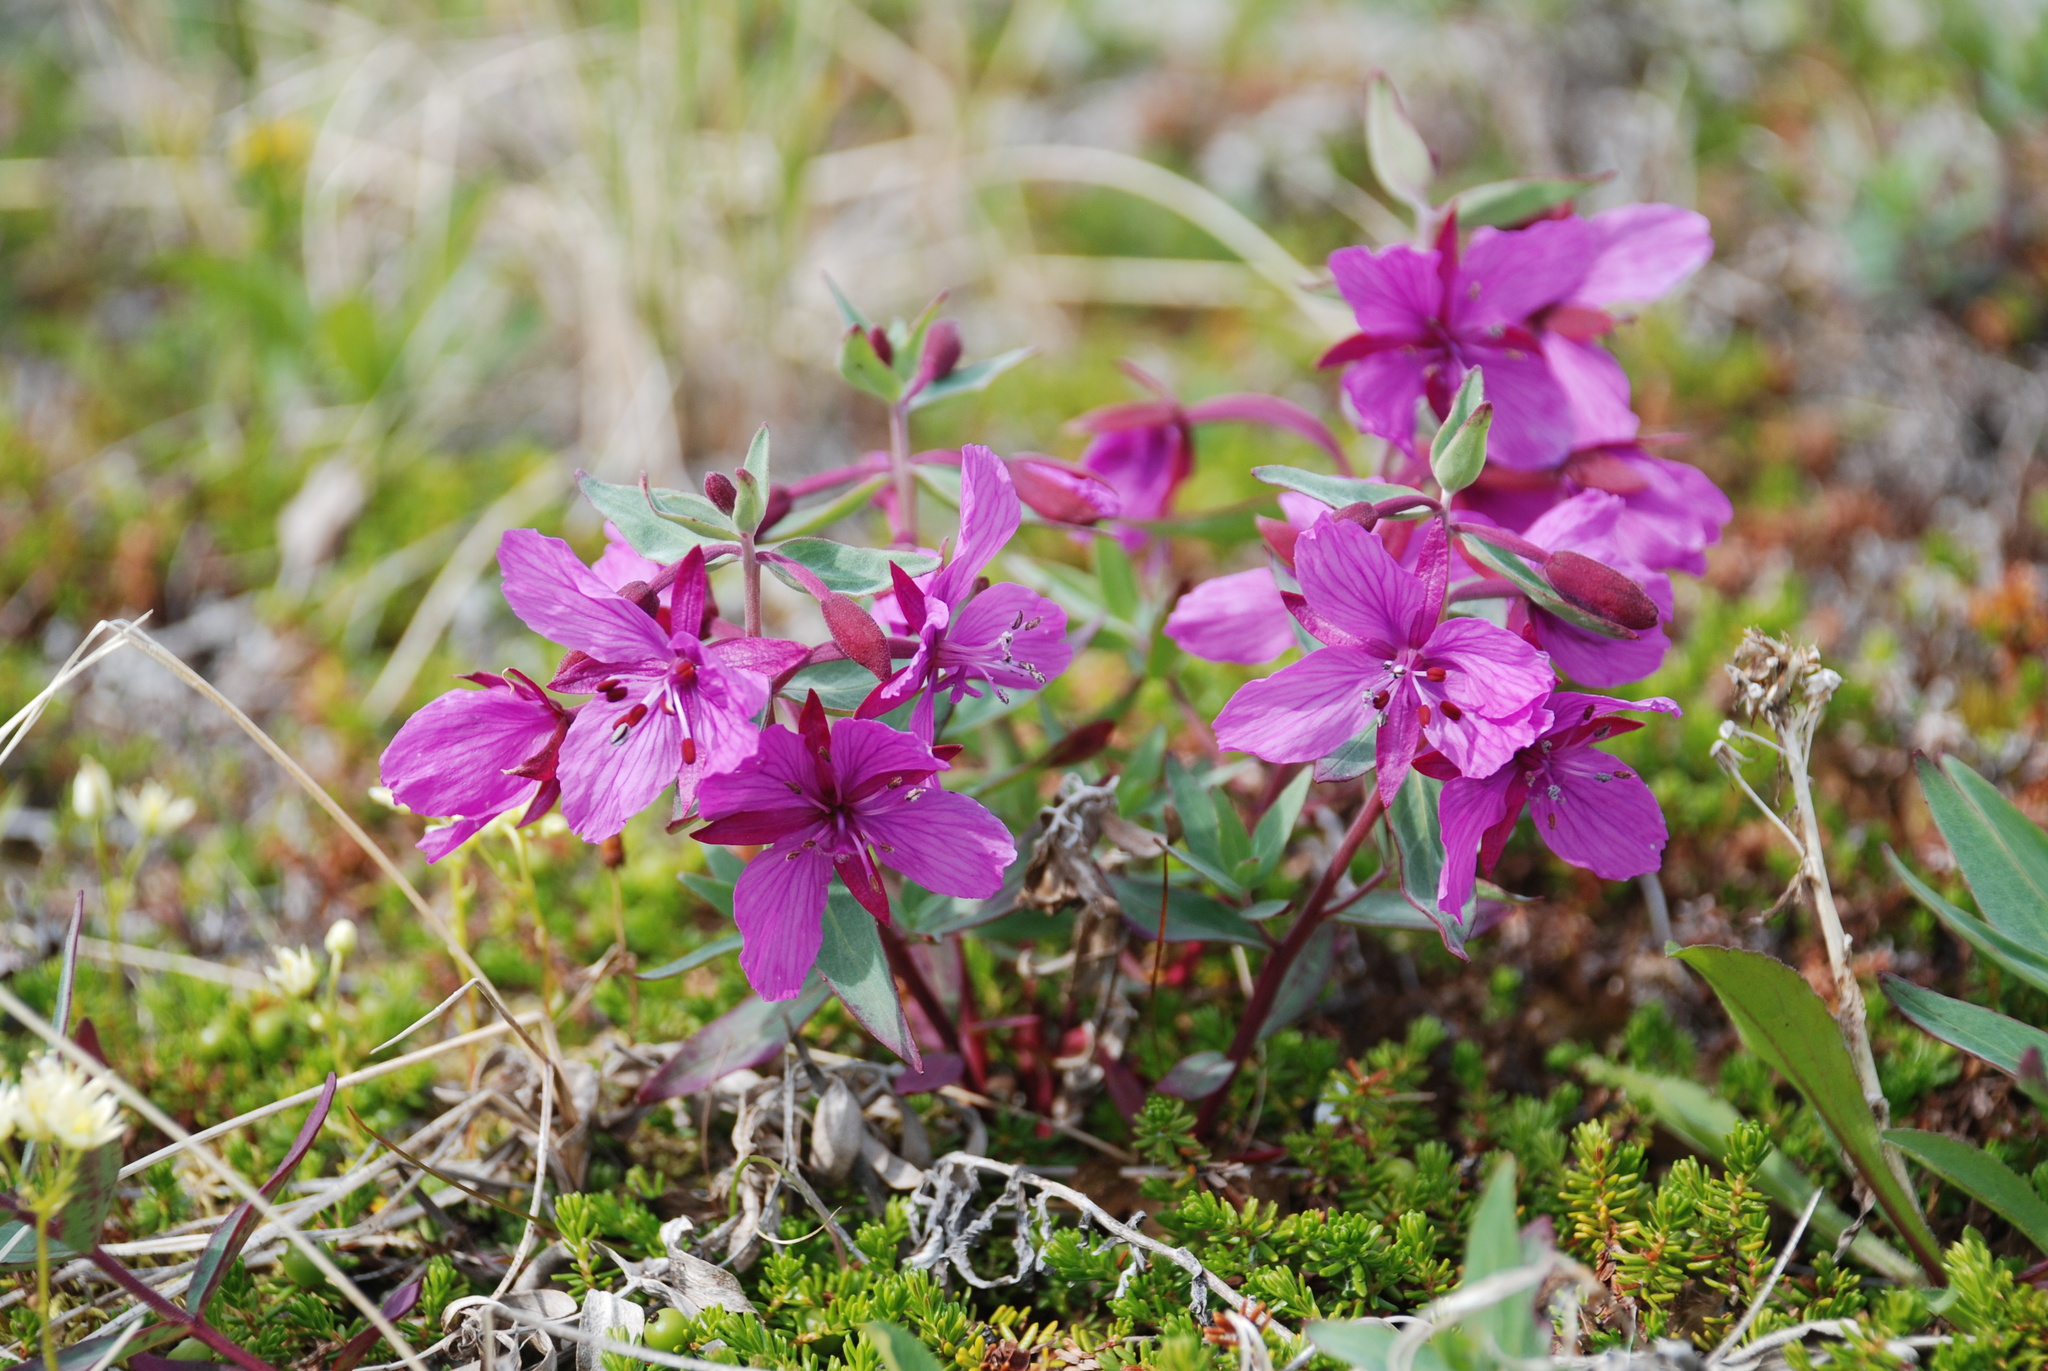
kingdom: Plantae
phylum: Tracheophyta
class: Magnoliopsida
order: Myrtales
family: Onagraceae
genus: Chamaenerion
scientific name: Chamaenerion latifolium
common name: Dwarf fireweed
